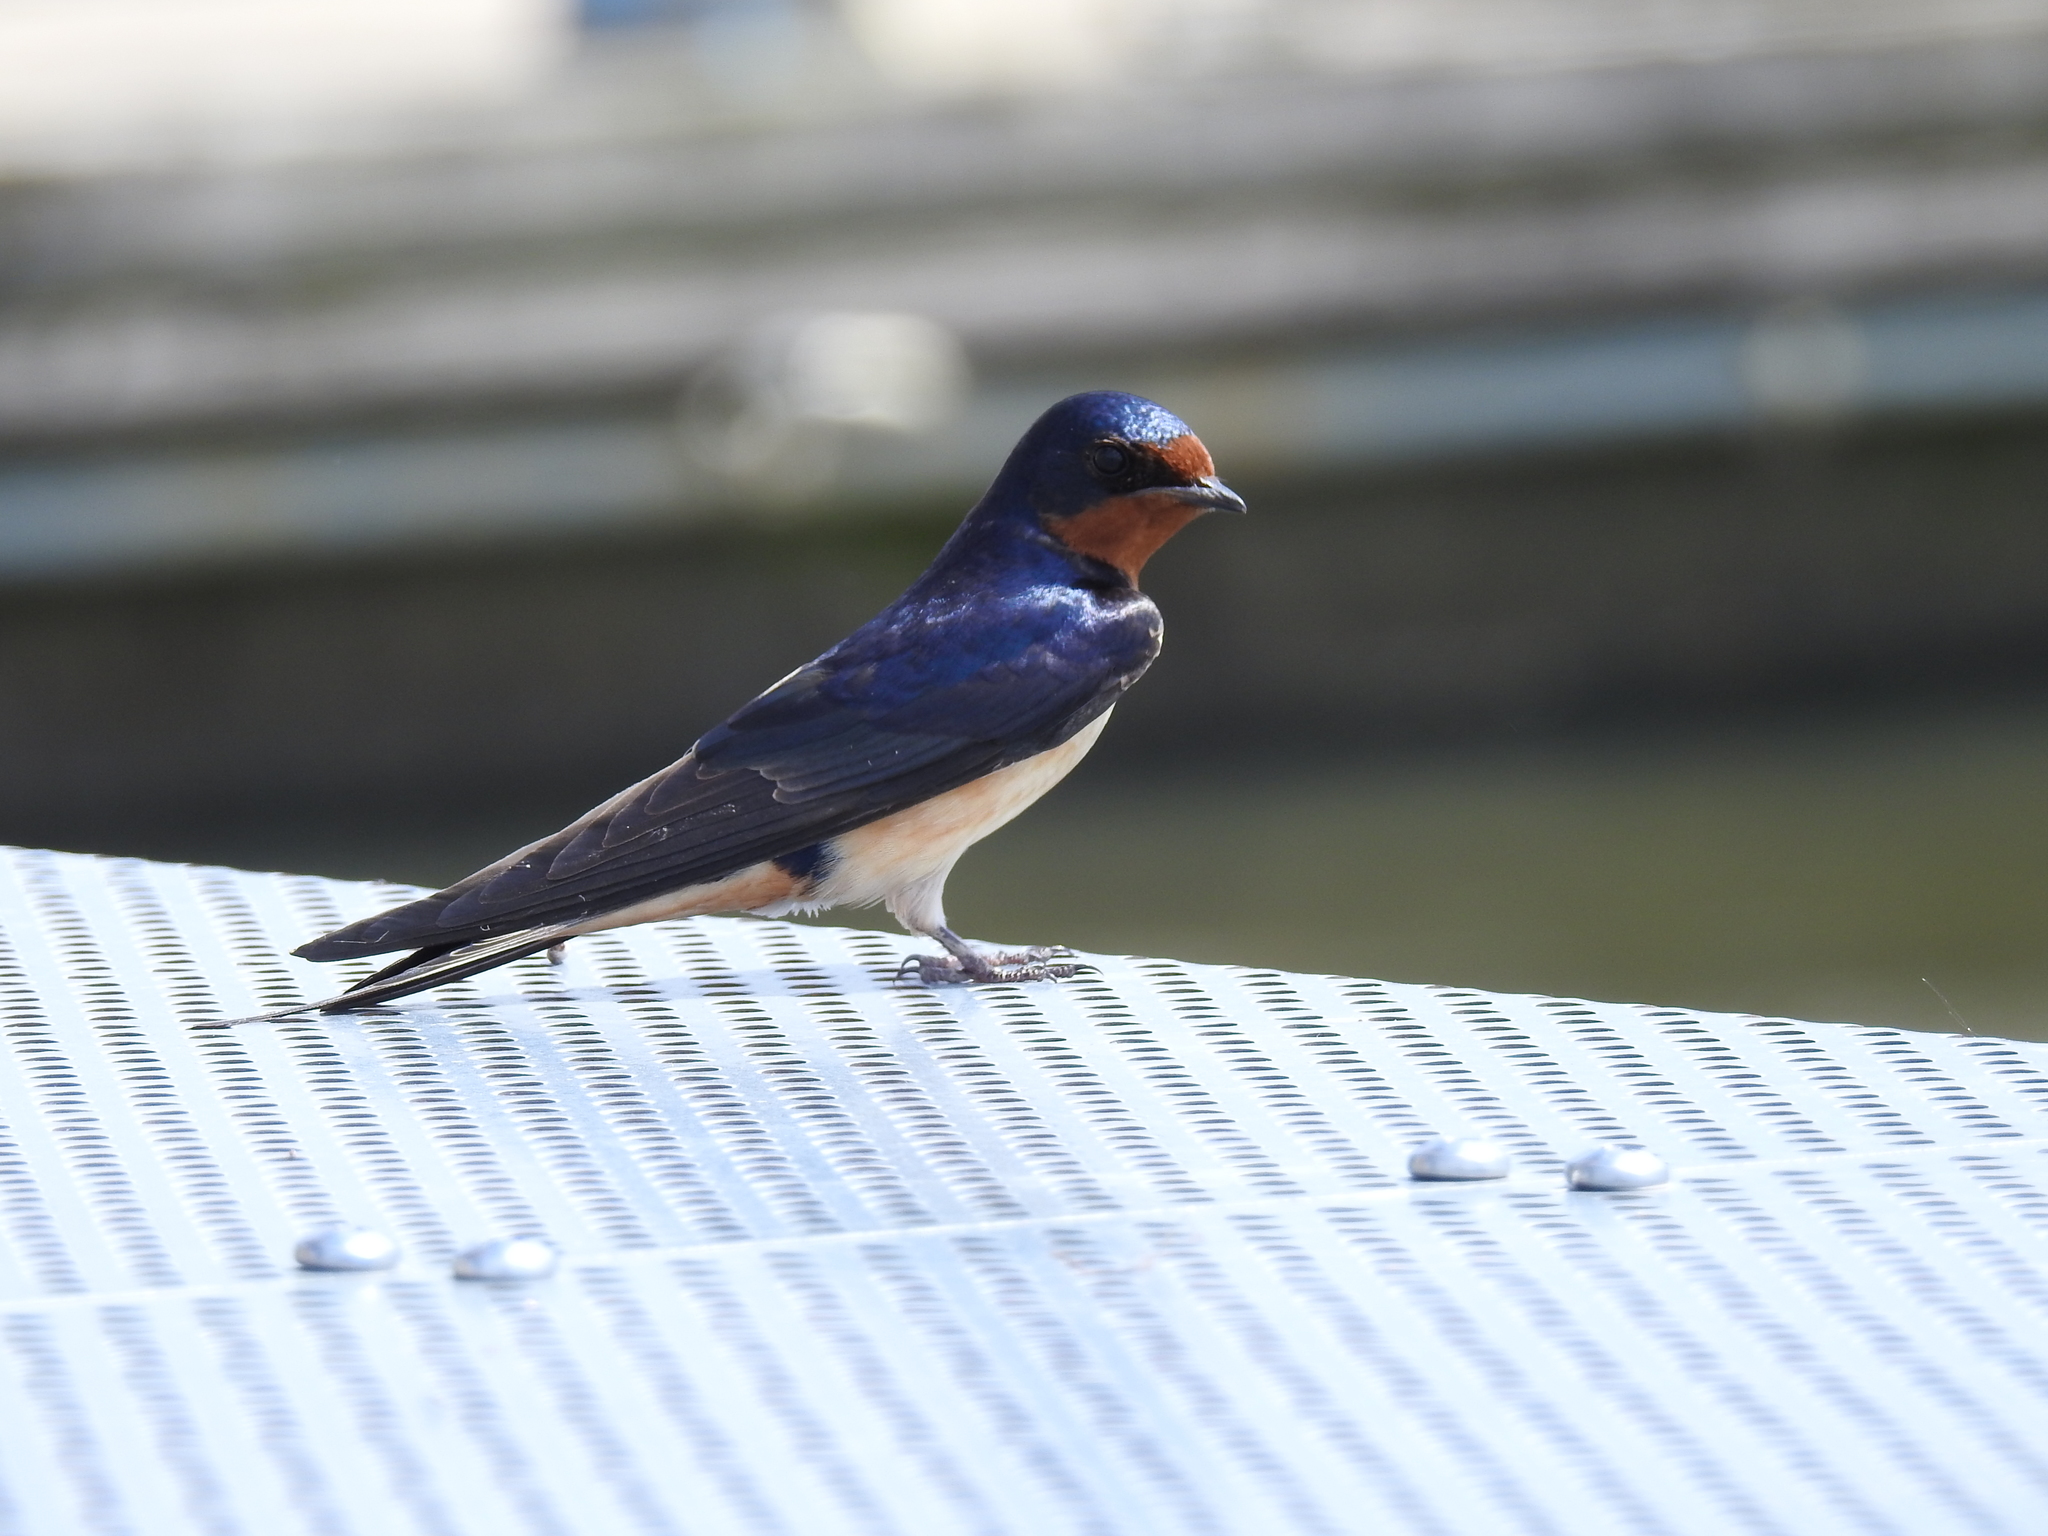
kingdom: Animalia
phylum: Chordata
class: Aves
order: Passeriformes
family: Hirundinidae
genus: Hirundo
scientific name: Hirundo rustica
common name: Barn swallow
